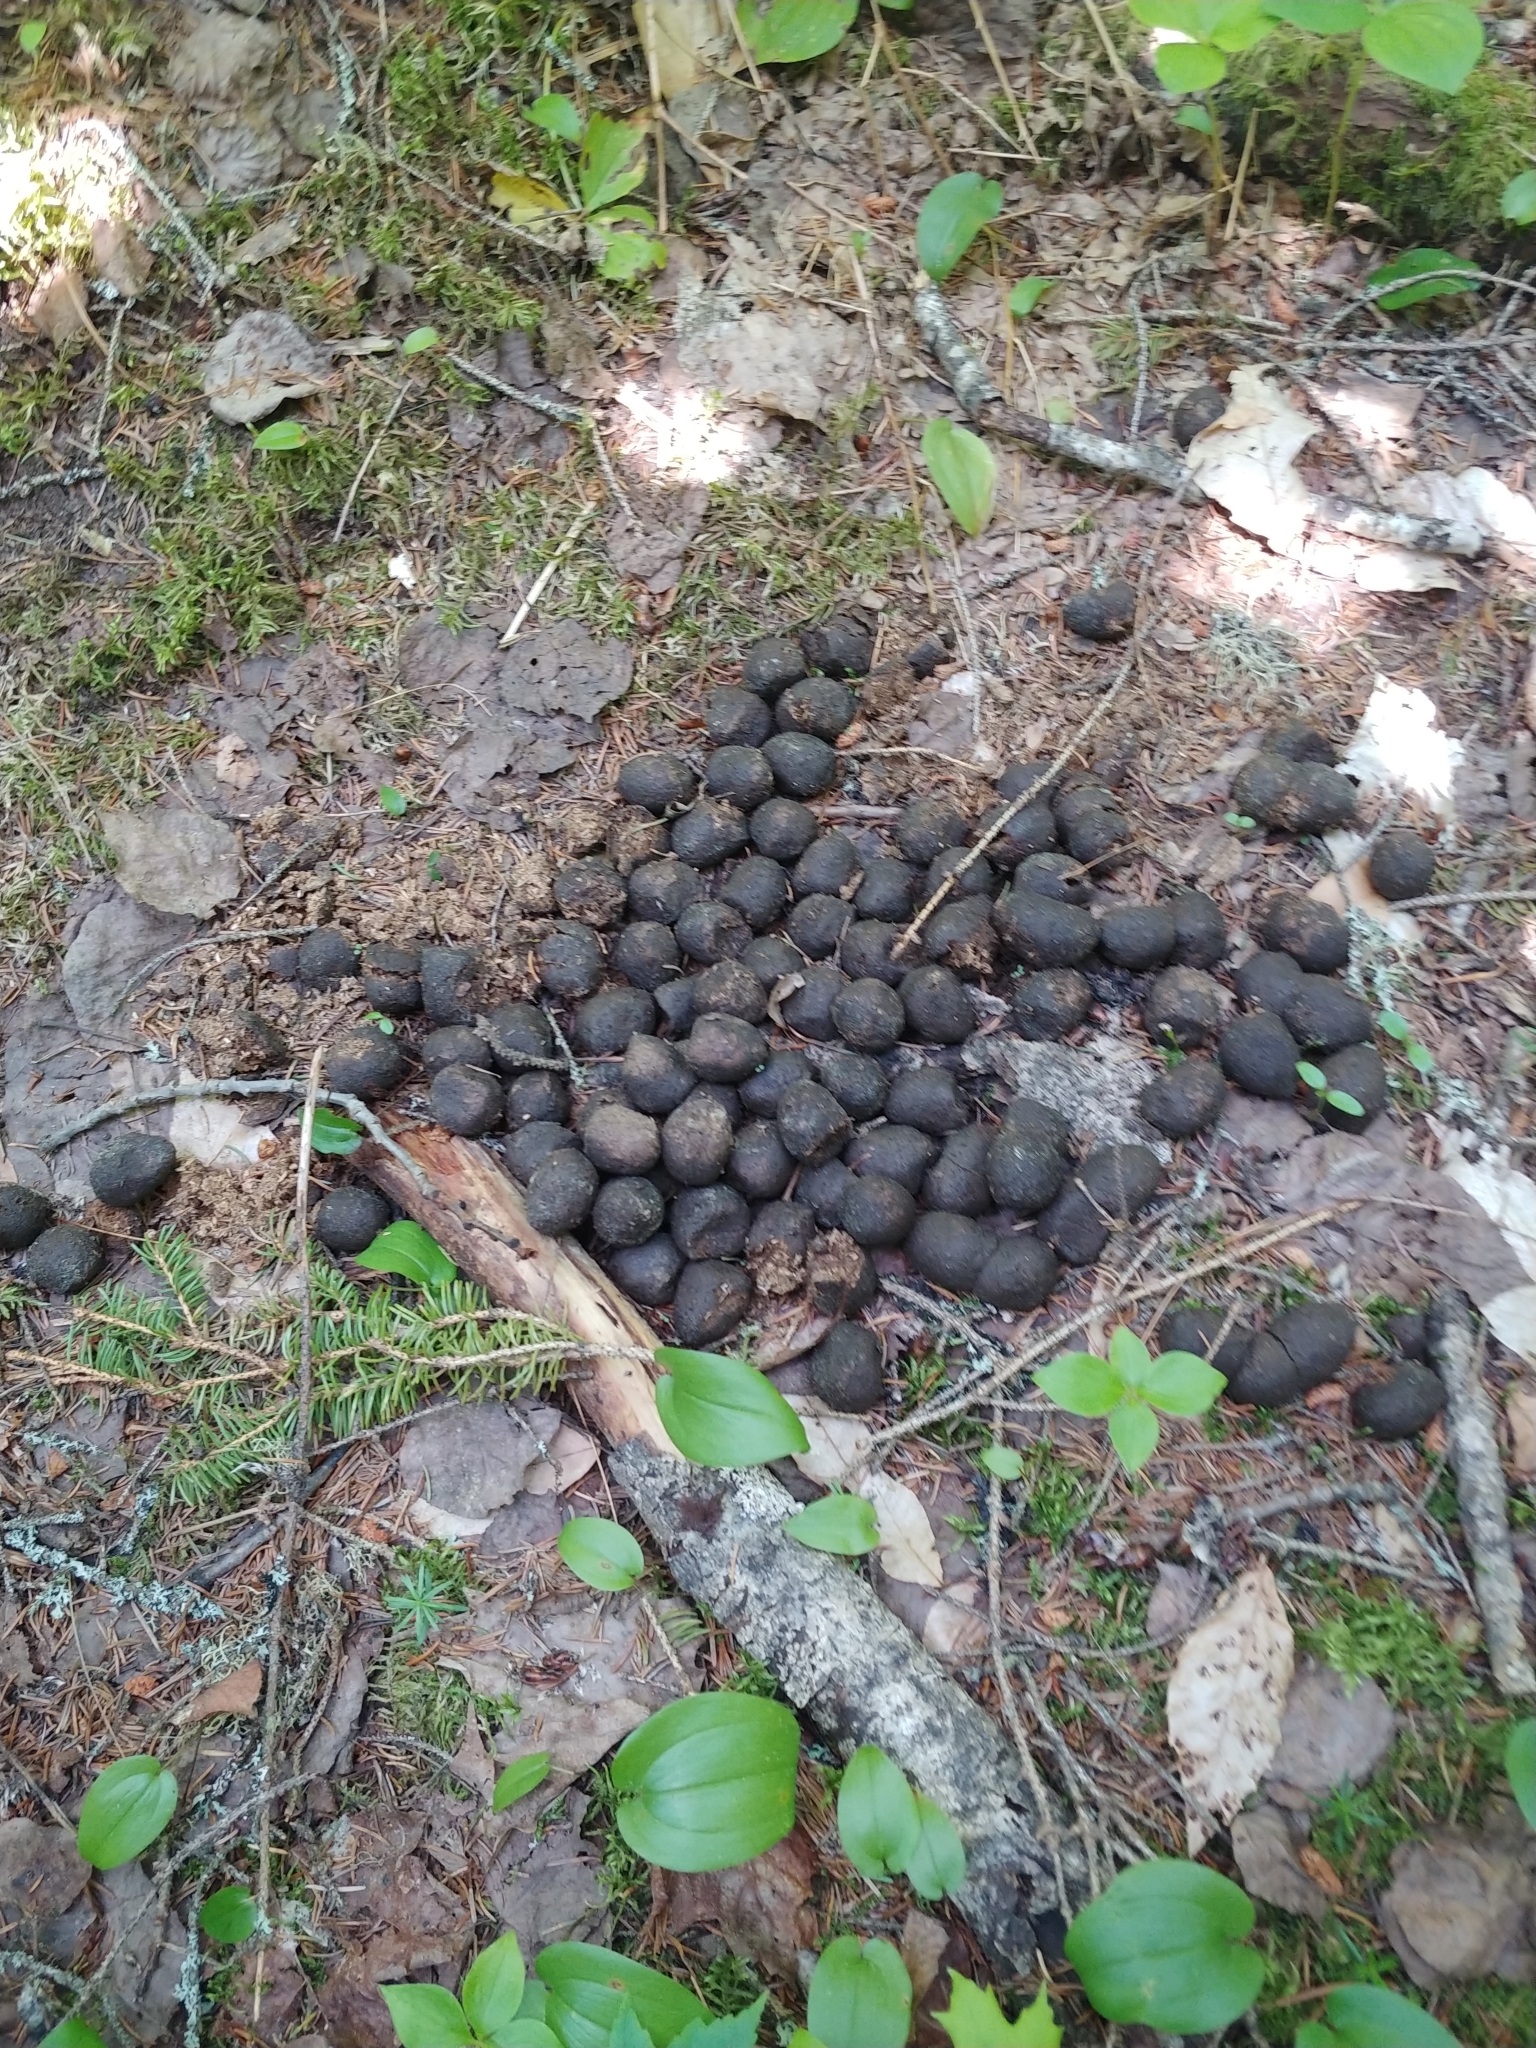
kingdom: Animalia
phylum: Chordata
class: Mammalia
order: Artiodactyla
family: Cervidae
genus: Alces
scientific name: Alces americanus
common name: Moose
